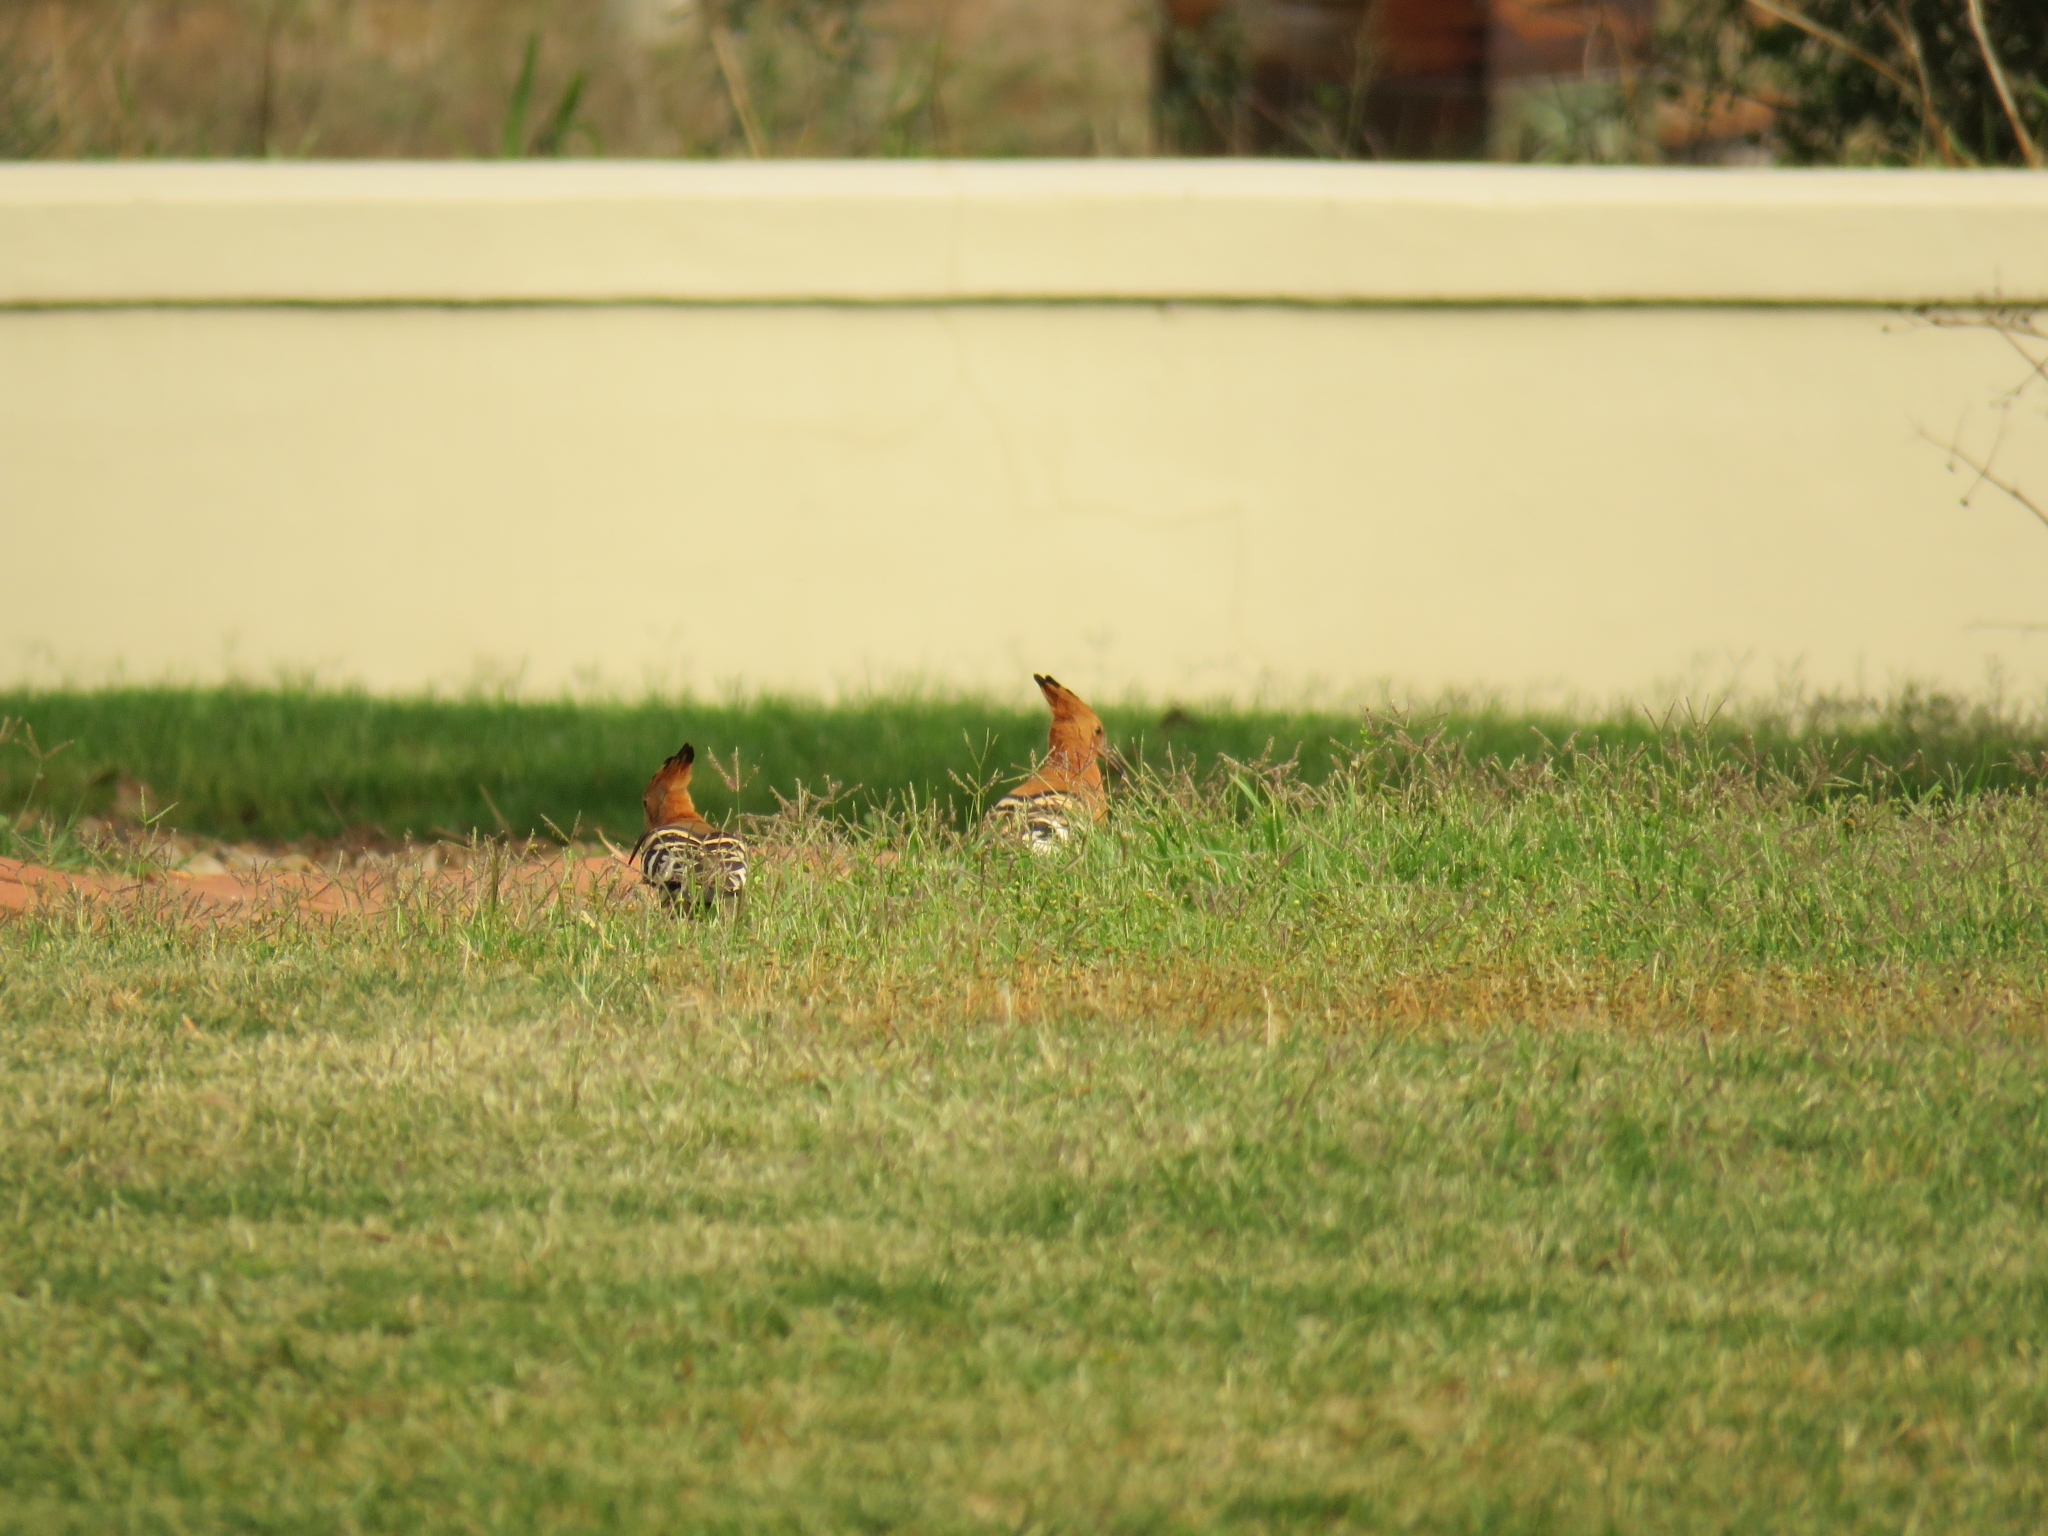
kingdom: Animalia
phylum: Chordata
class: Aves
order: Bucerotiformes
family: Upupidae
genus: Upupa
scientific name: Upupa africana
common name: African hoopoe
